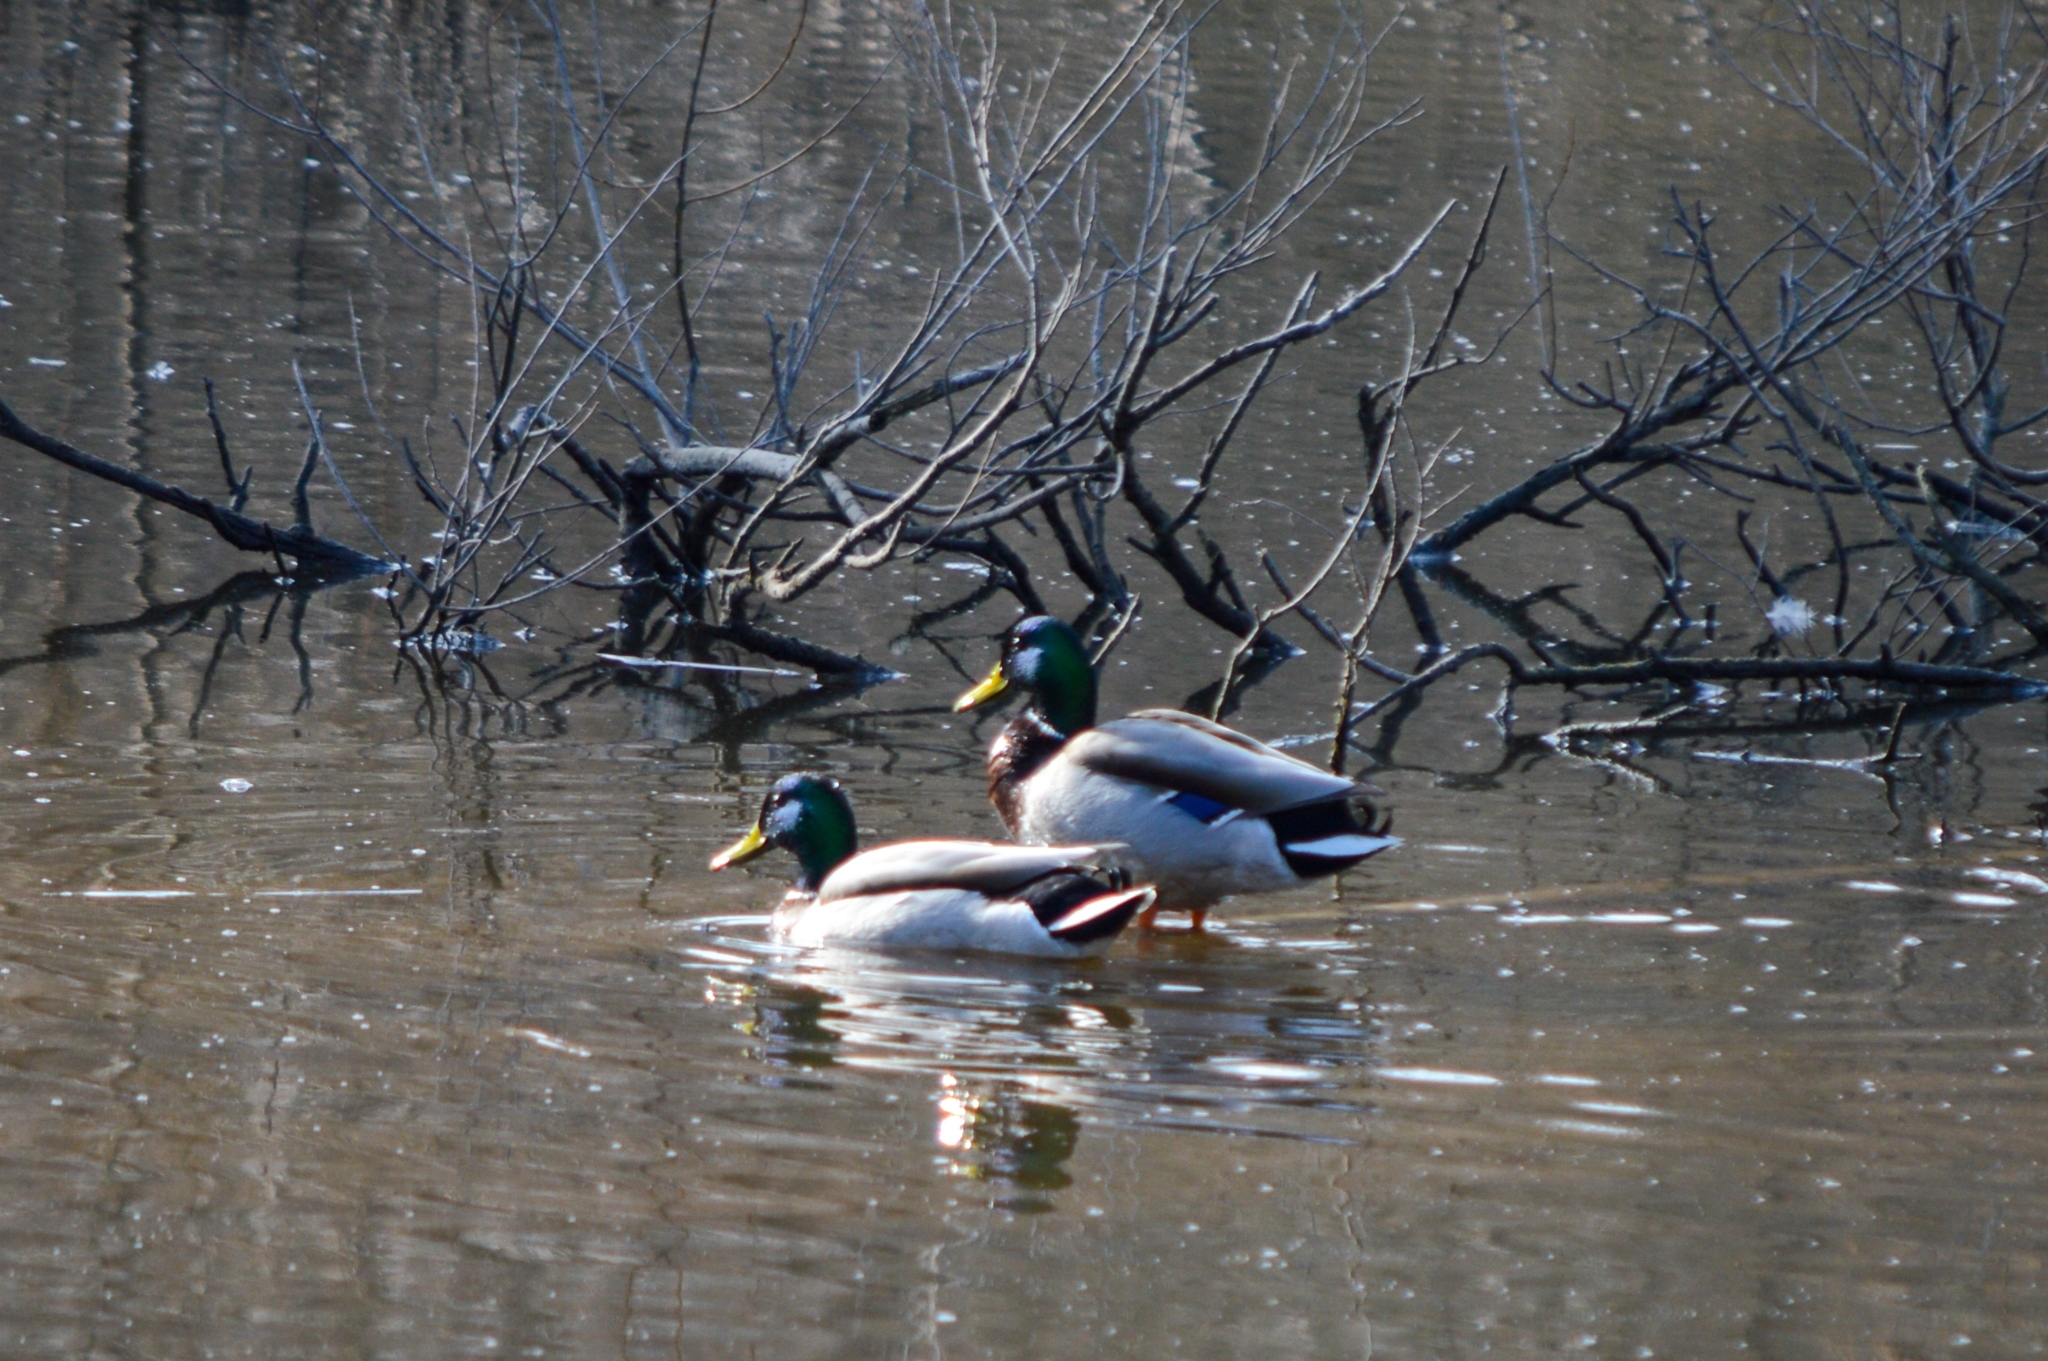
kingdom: Animalia
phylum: Chordata
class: Aves
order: Anseriformes
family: Anatidae
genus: Anas
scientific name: Anas platyrhynchos
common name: Mallard
